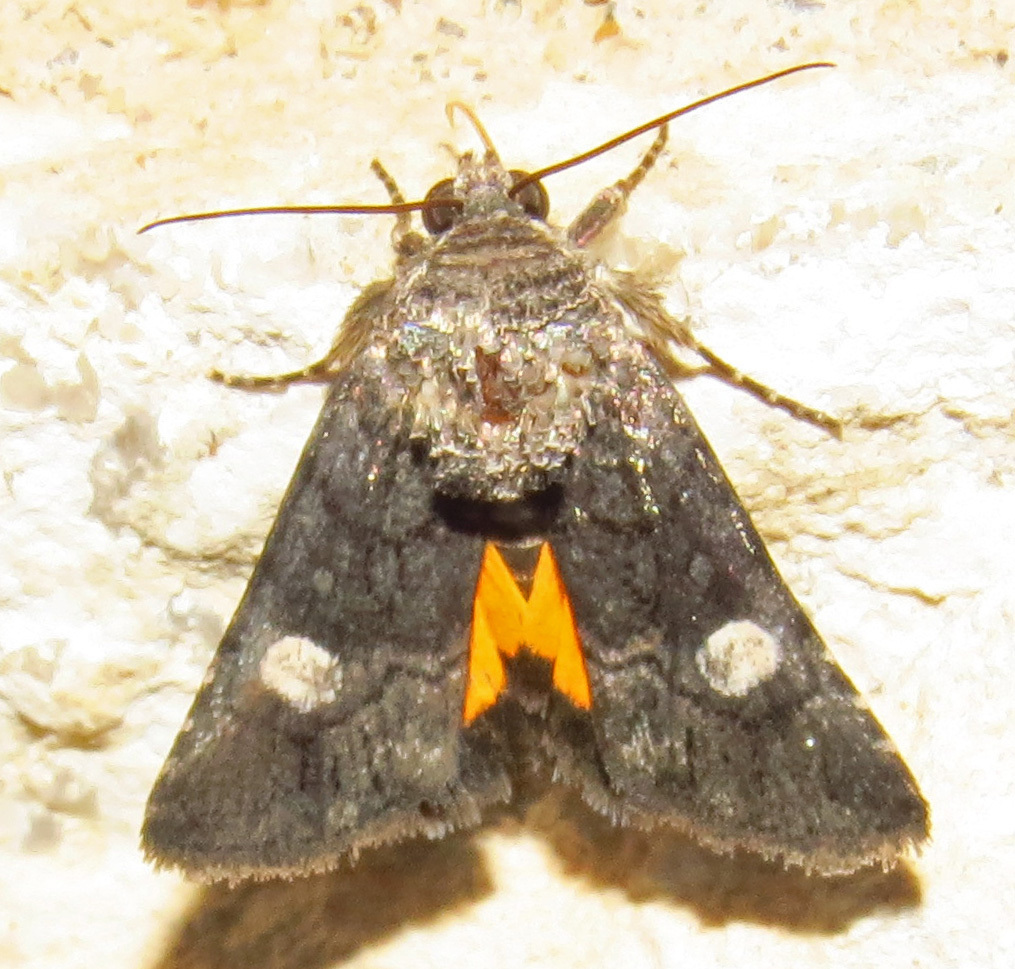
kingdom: Animalia
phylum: Arthropoda
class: Insecta
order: Lepidoptera
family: Noctuidae
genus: Copanarta
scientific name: Copanarta aurea
